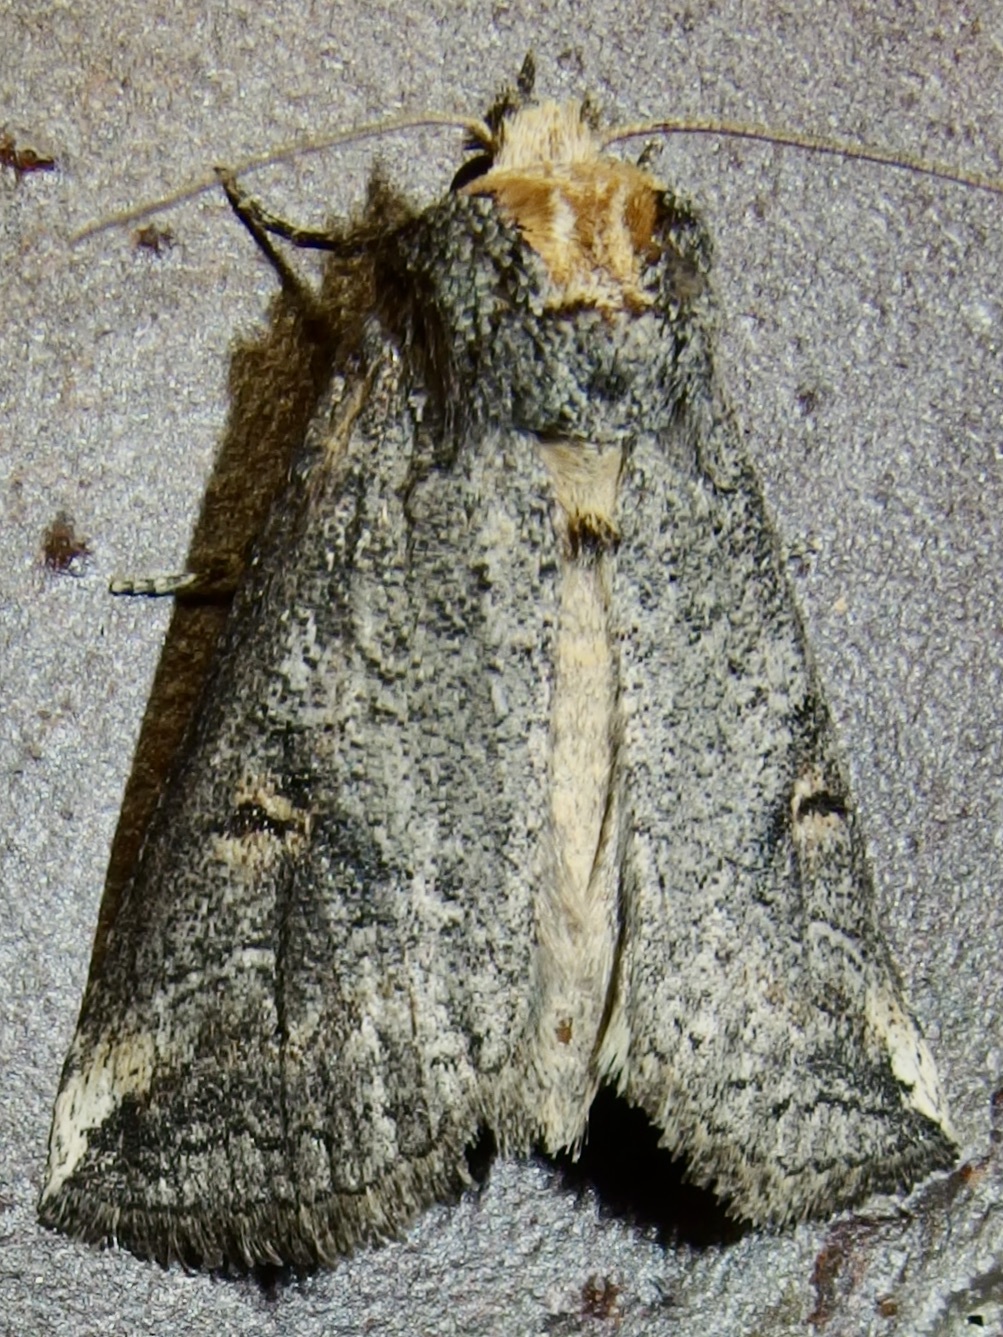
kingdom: Animalia
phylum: Arthropoda
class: Insecta
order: Lepidoptera
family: Notodontidae
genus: Elasmia
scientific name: Elasmia packardii
